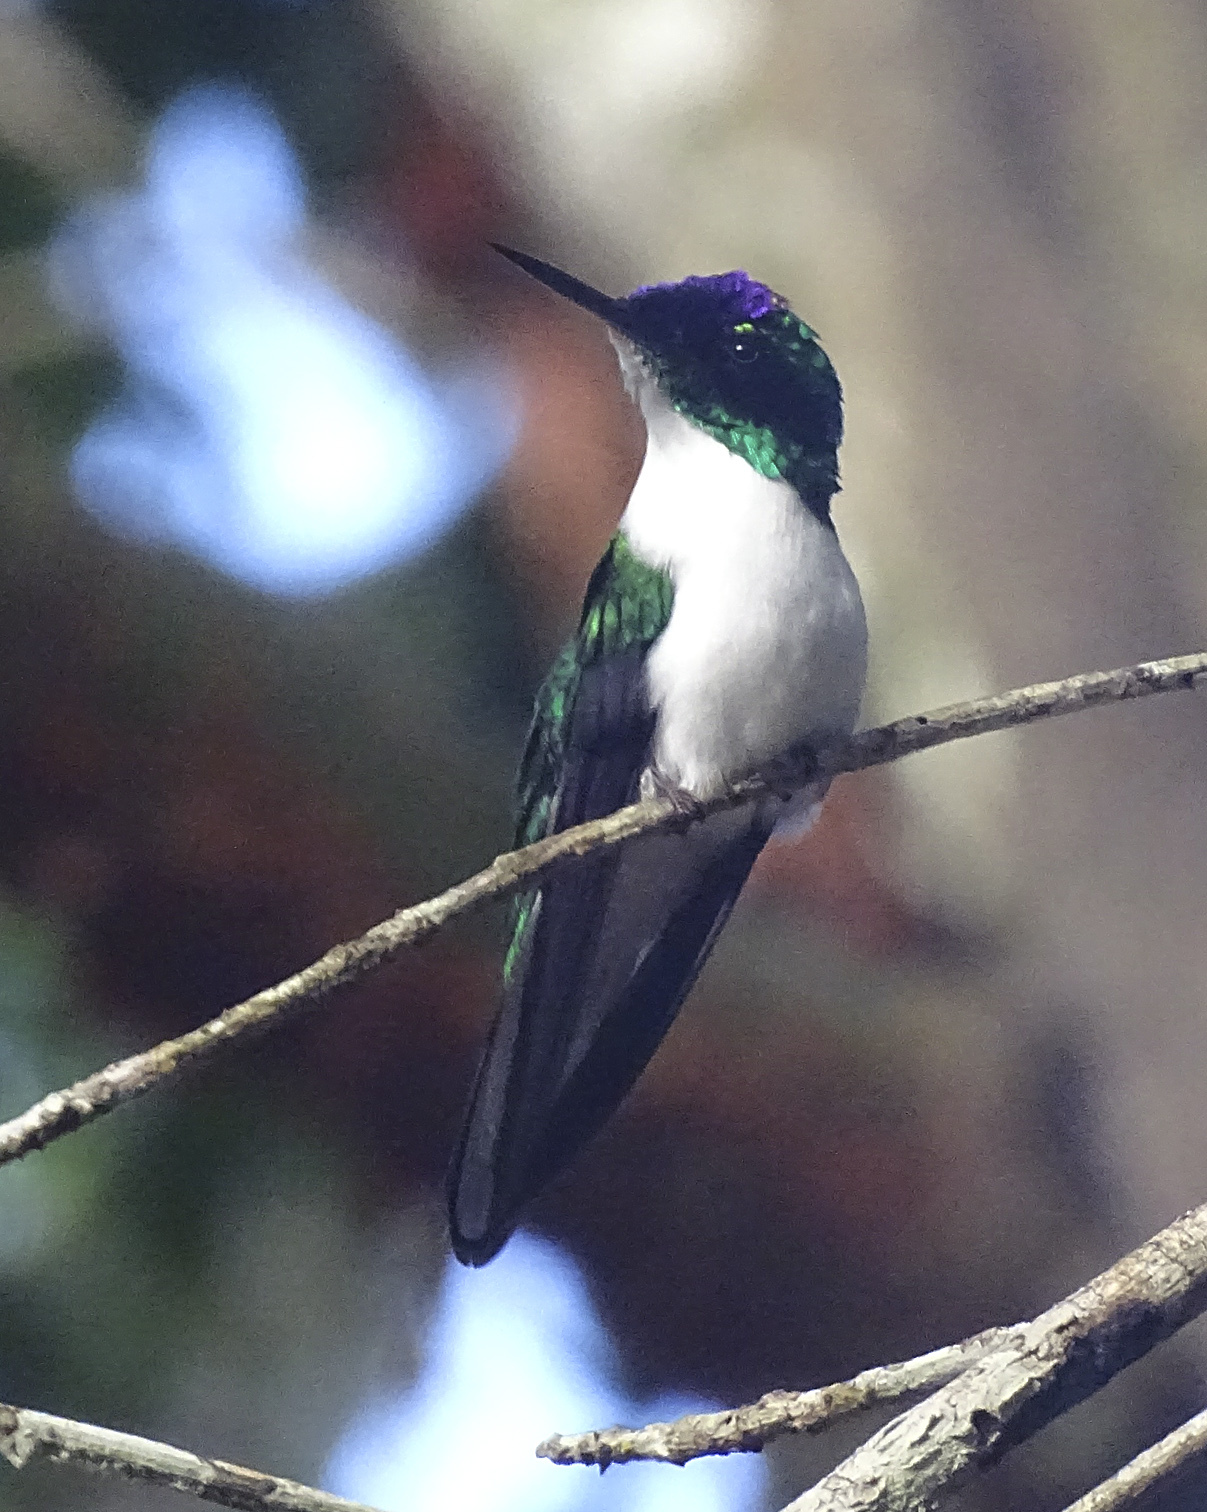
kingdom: Animalia
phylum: Chordata
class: Aves
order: Apodiformes
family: Trochilidae
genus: Heliothryx
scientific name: Heliothryx barroti
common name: Purple-crowned fairy
